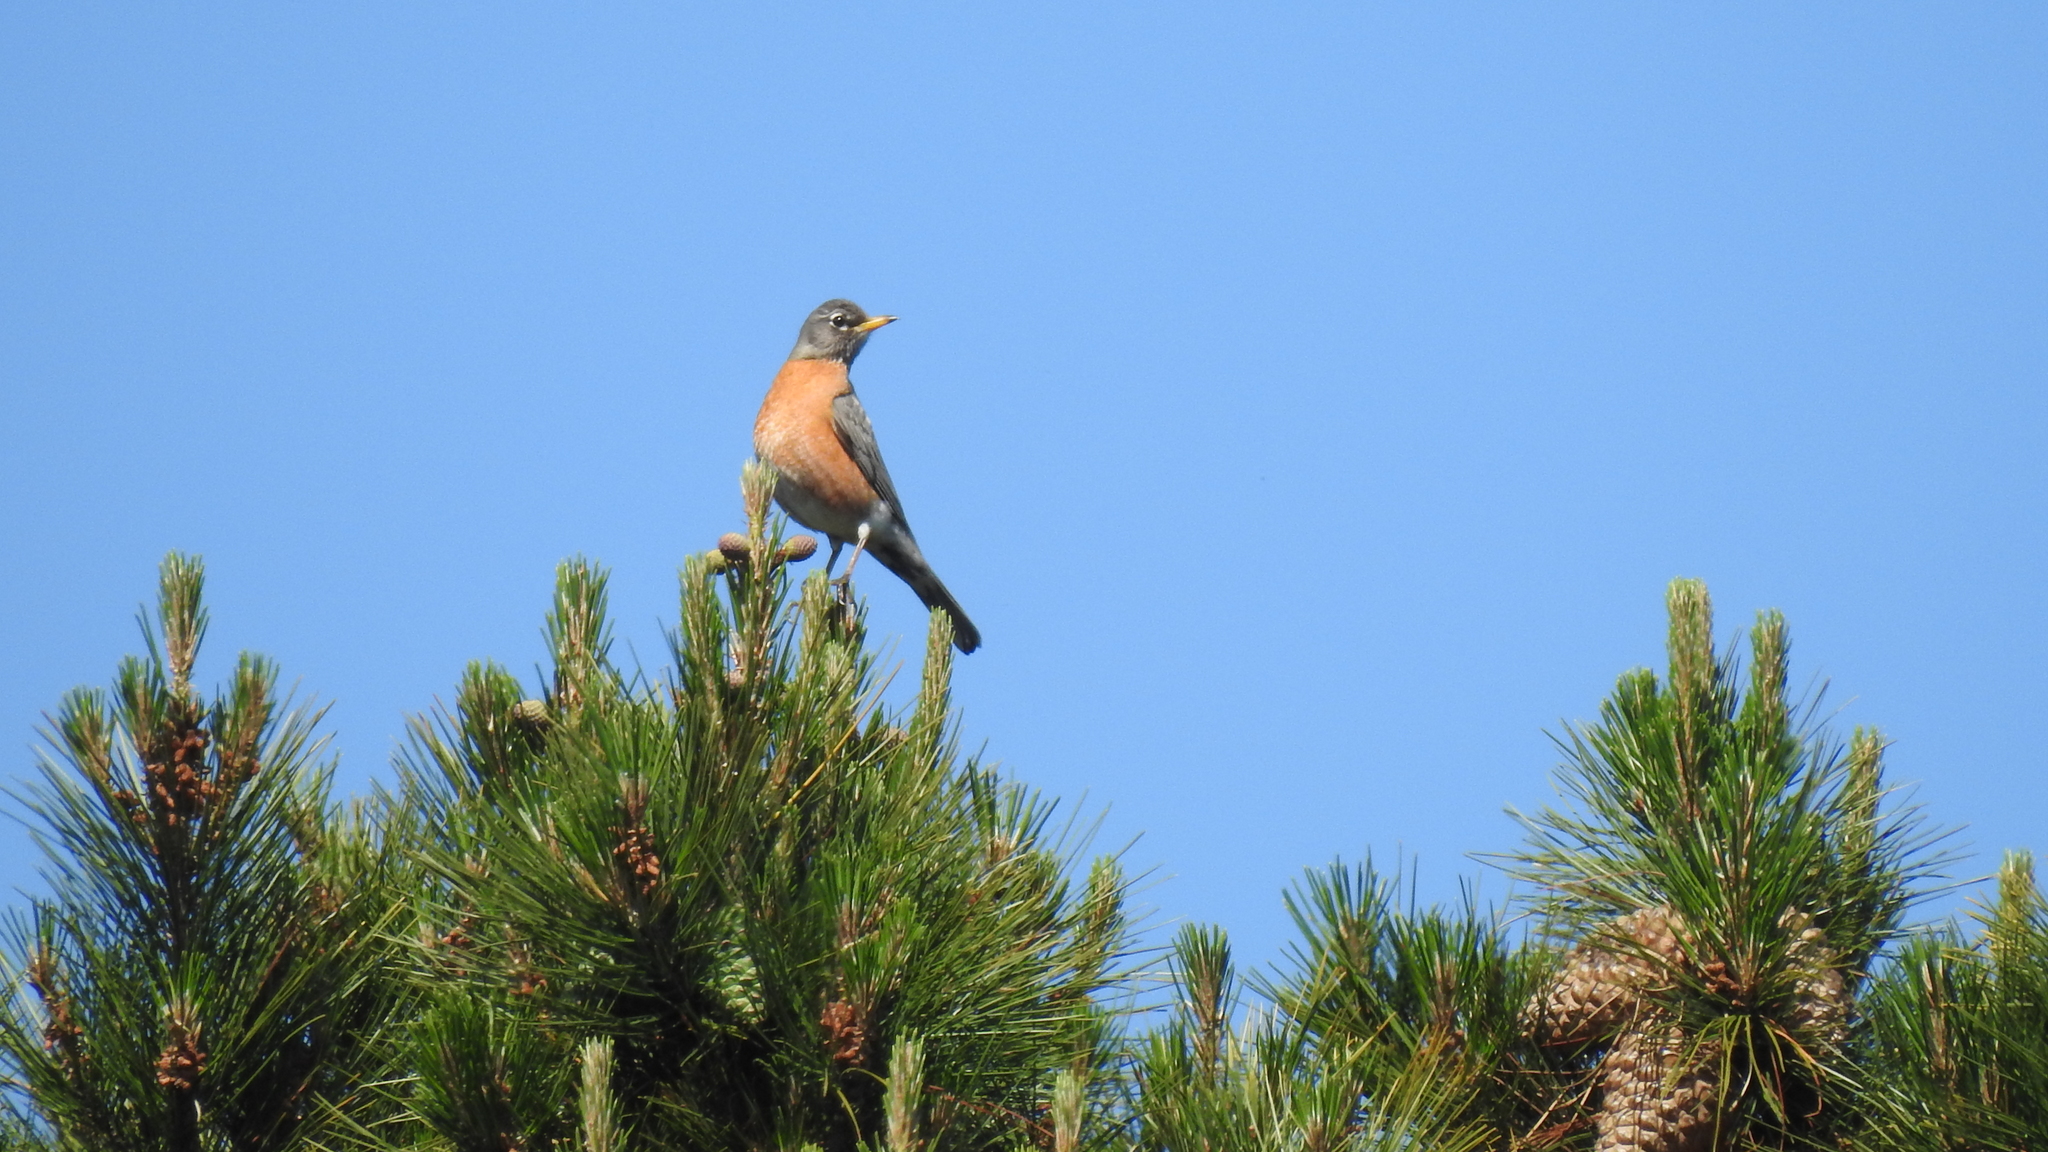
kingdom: Animalia
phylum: Chordata
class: Aves
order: Passeriformes
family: Turdidae
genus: Turdus
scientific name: Turdus migratorius
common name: American robin
